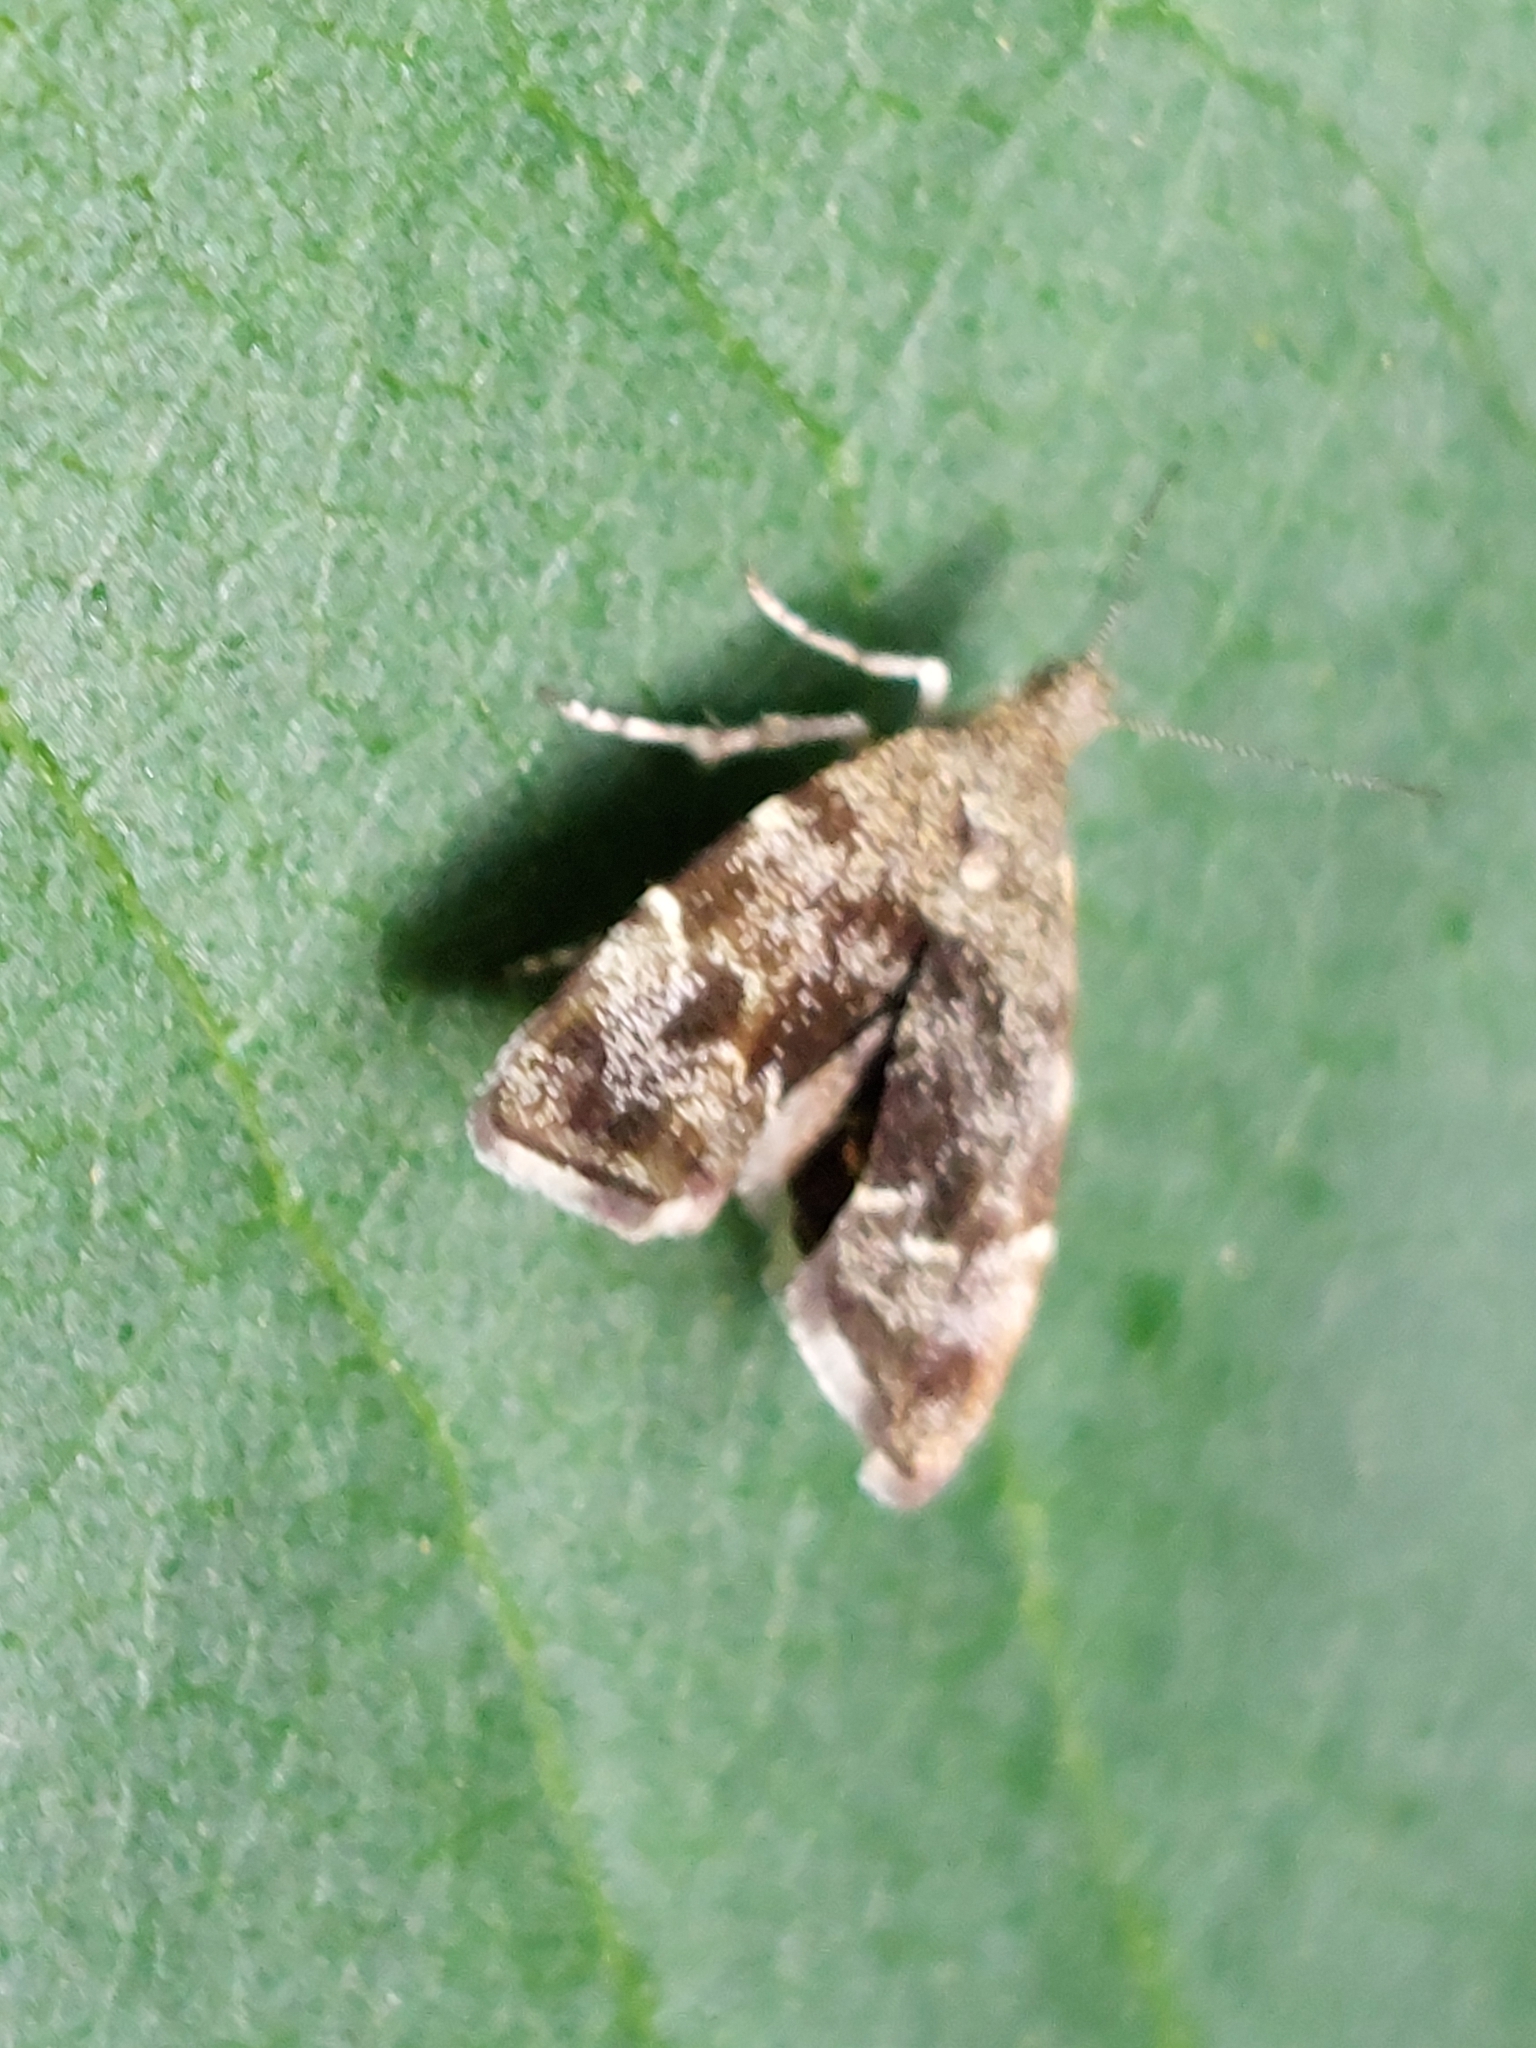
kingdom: Animalia
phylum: Arthropoda
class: Insecta
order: Lepidoptera
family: Choreutidae
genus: Anthophila
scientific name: Anthophila fabriciana
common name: Nettle-tap
